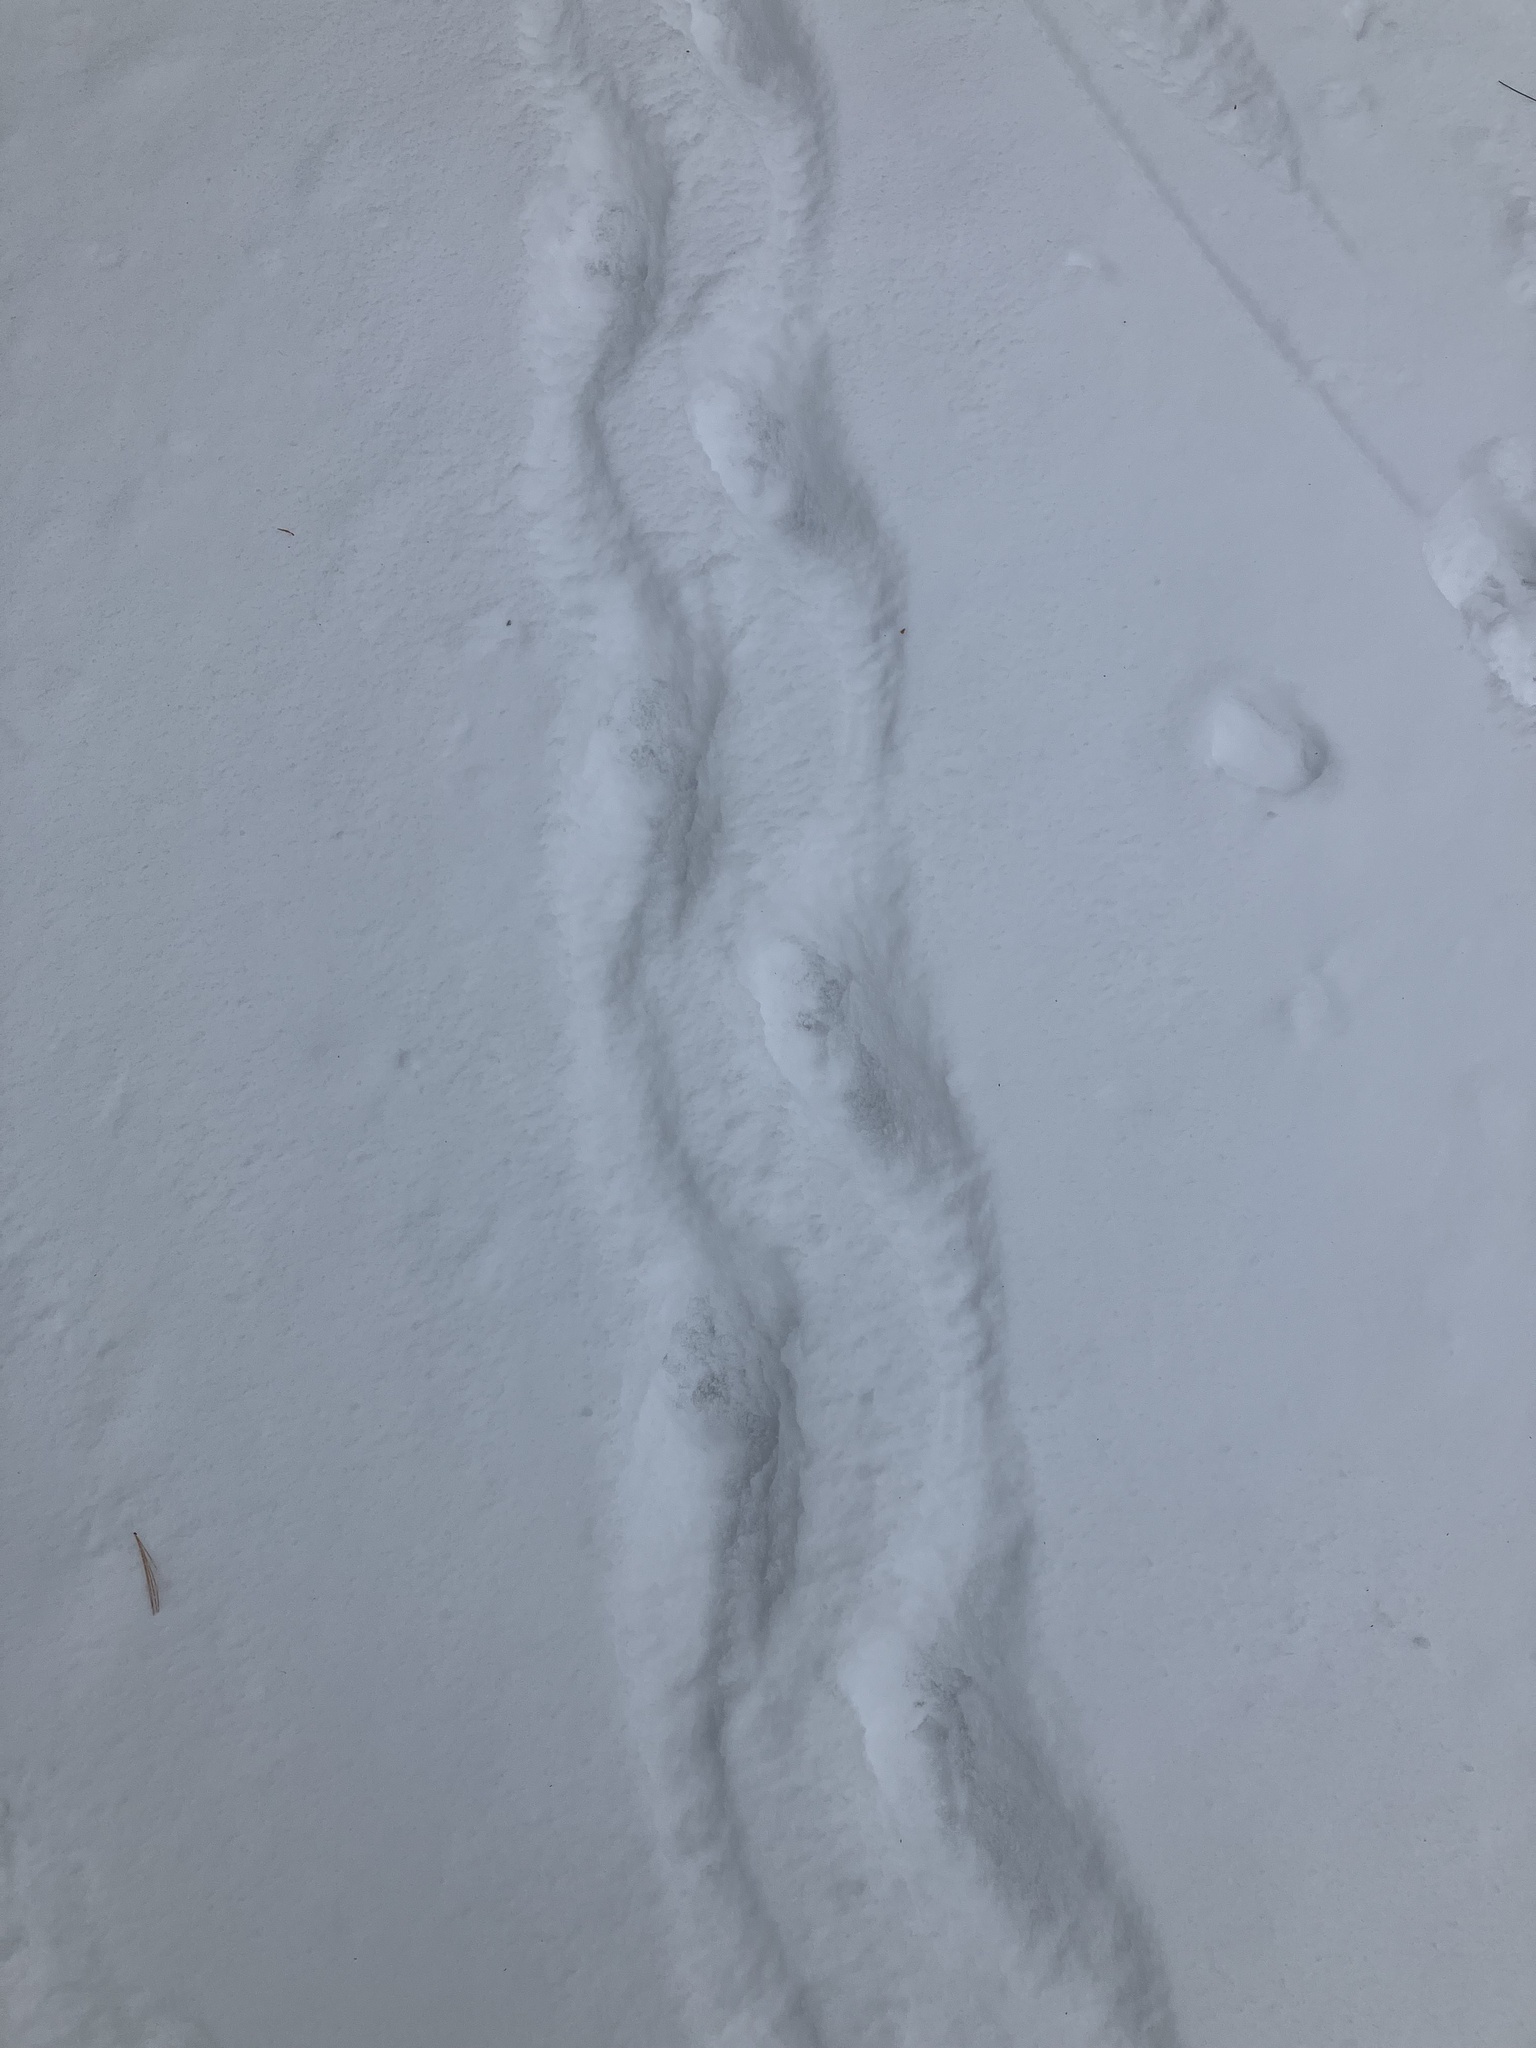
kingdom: Animalia
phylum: Chordata
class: Mammalia
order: Rodentia
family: Erethizontidae
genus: Erethizon
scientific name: Erethizon dorsatus
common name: North american porcupine
